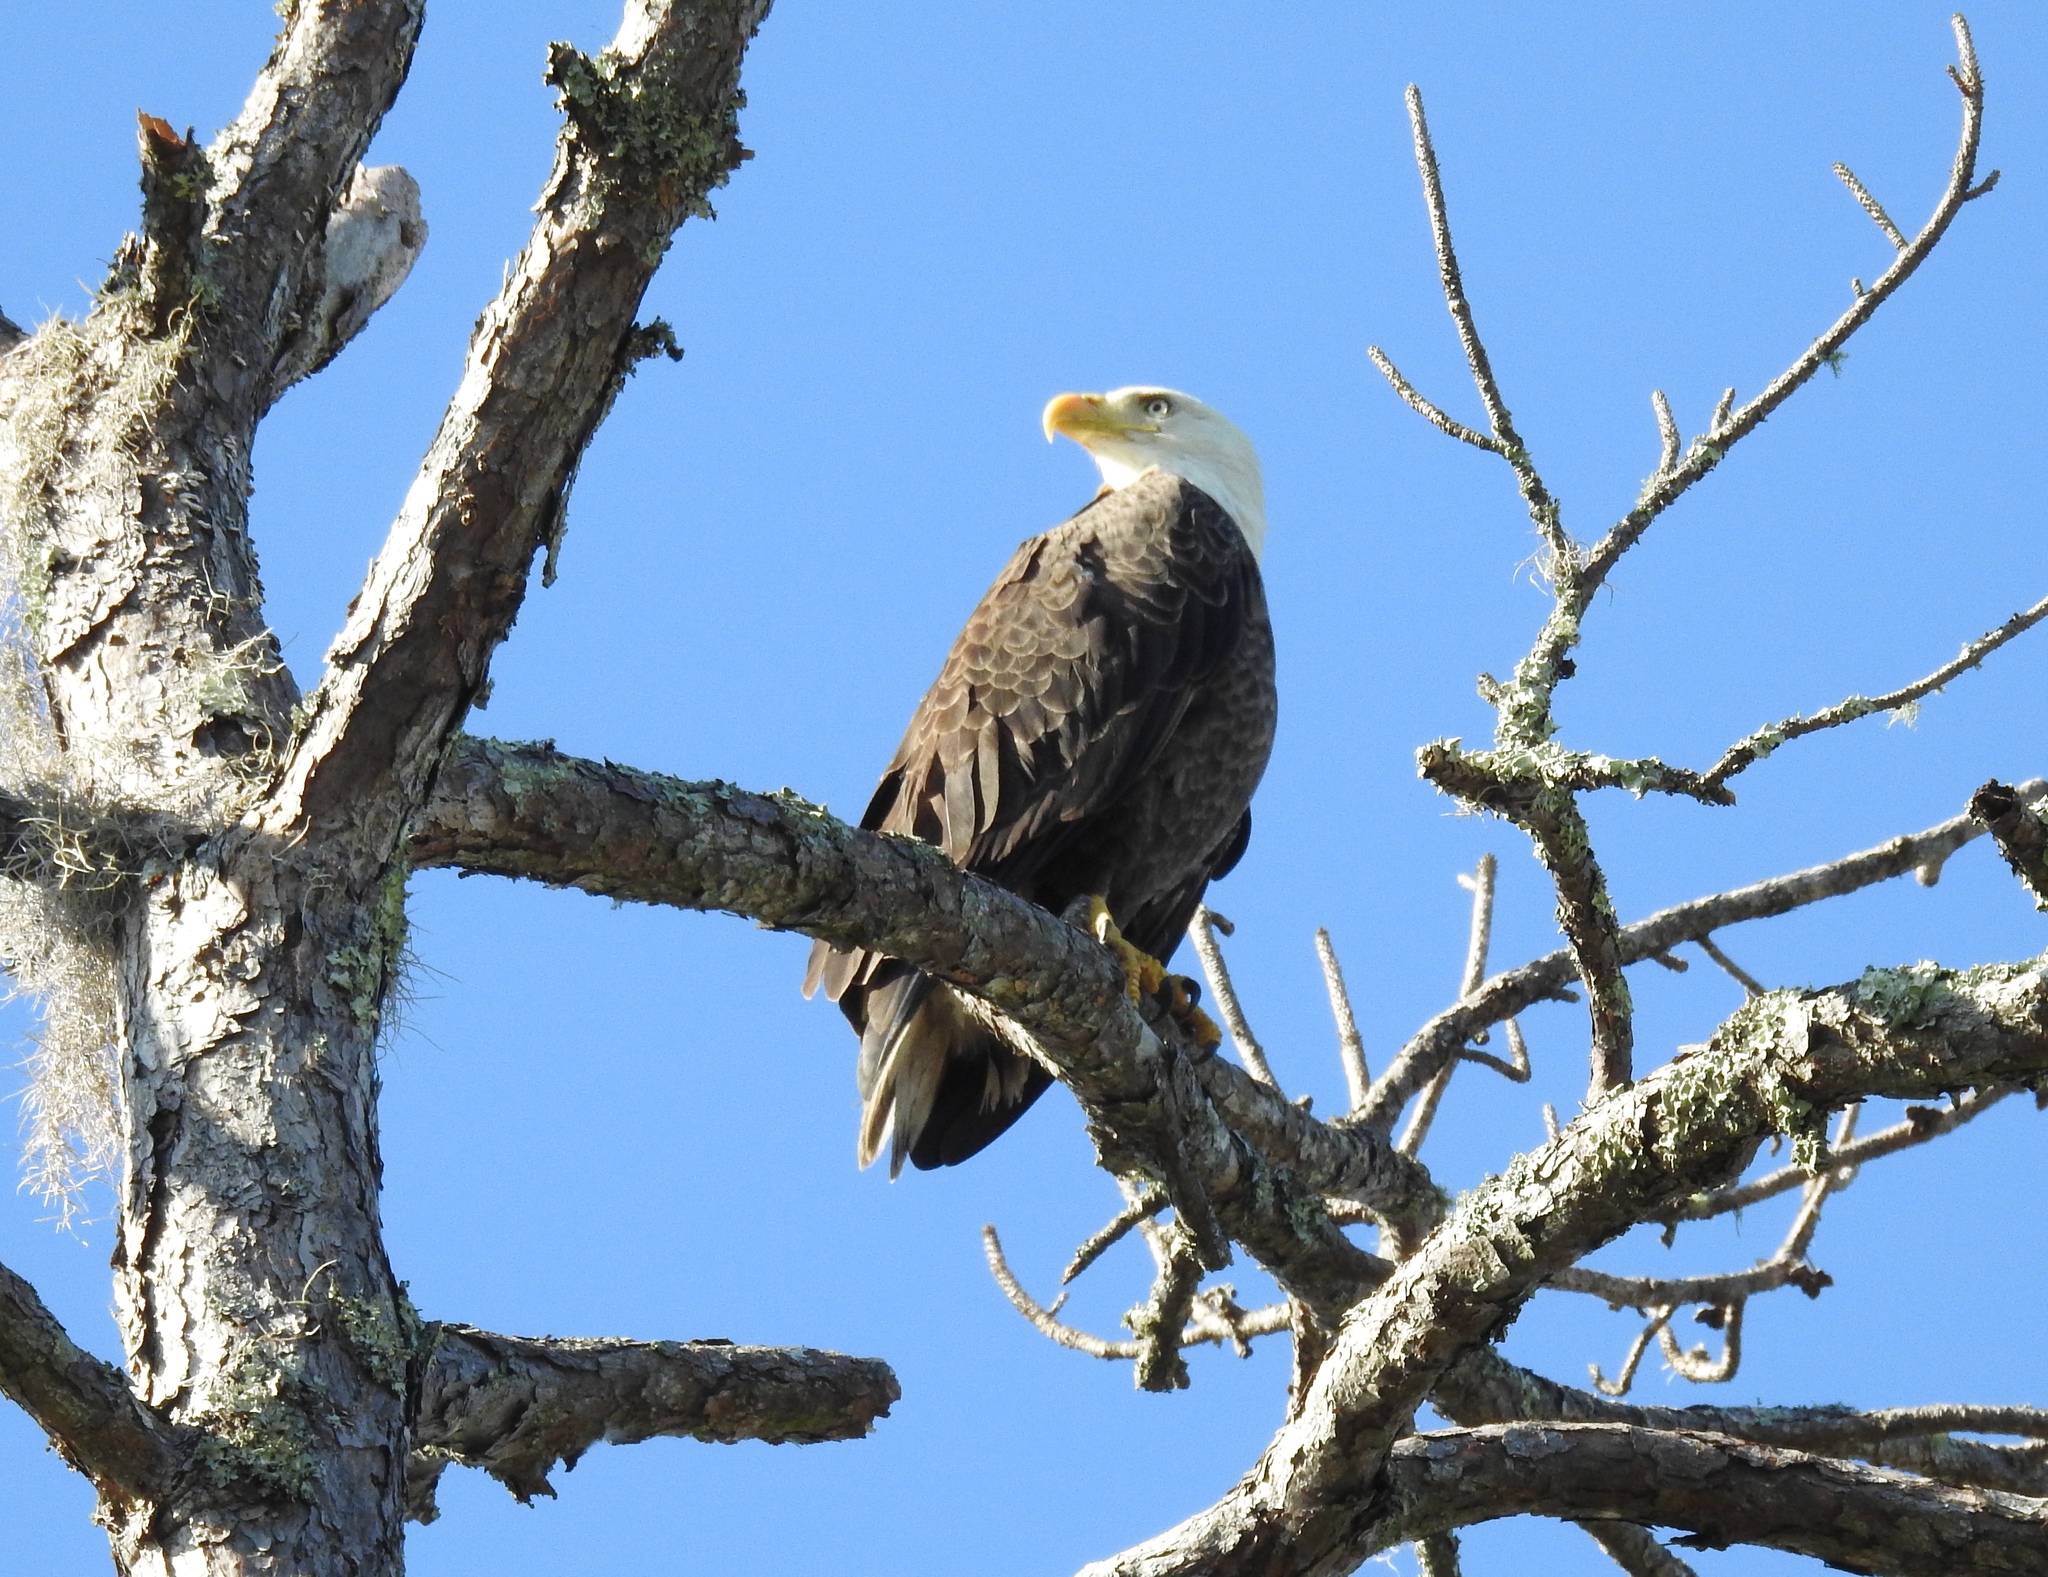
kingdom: Animalia
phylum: Chordata
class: Aves
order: Accipitriformes
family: Accipitridae
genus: Haliaeetus
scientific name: Haliaeetus leucocephalus
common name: Bald eagle
